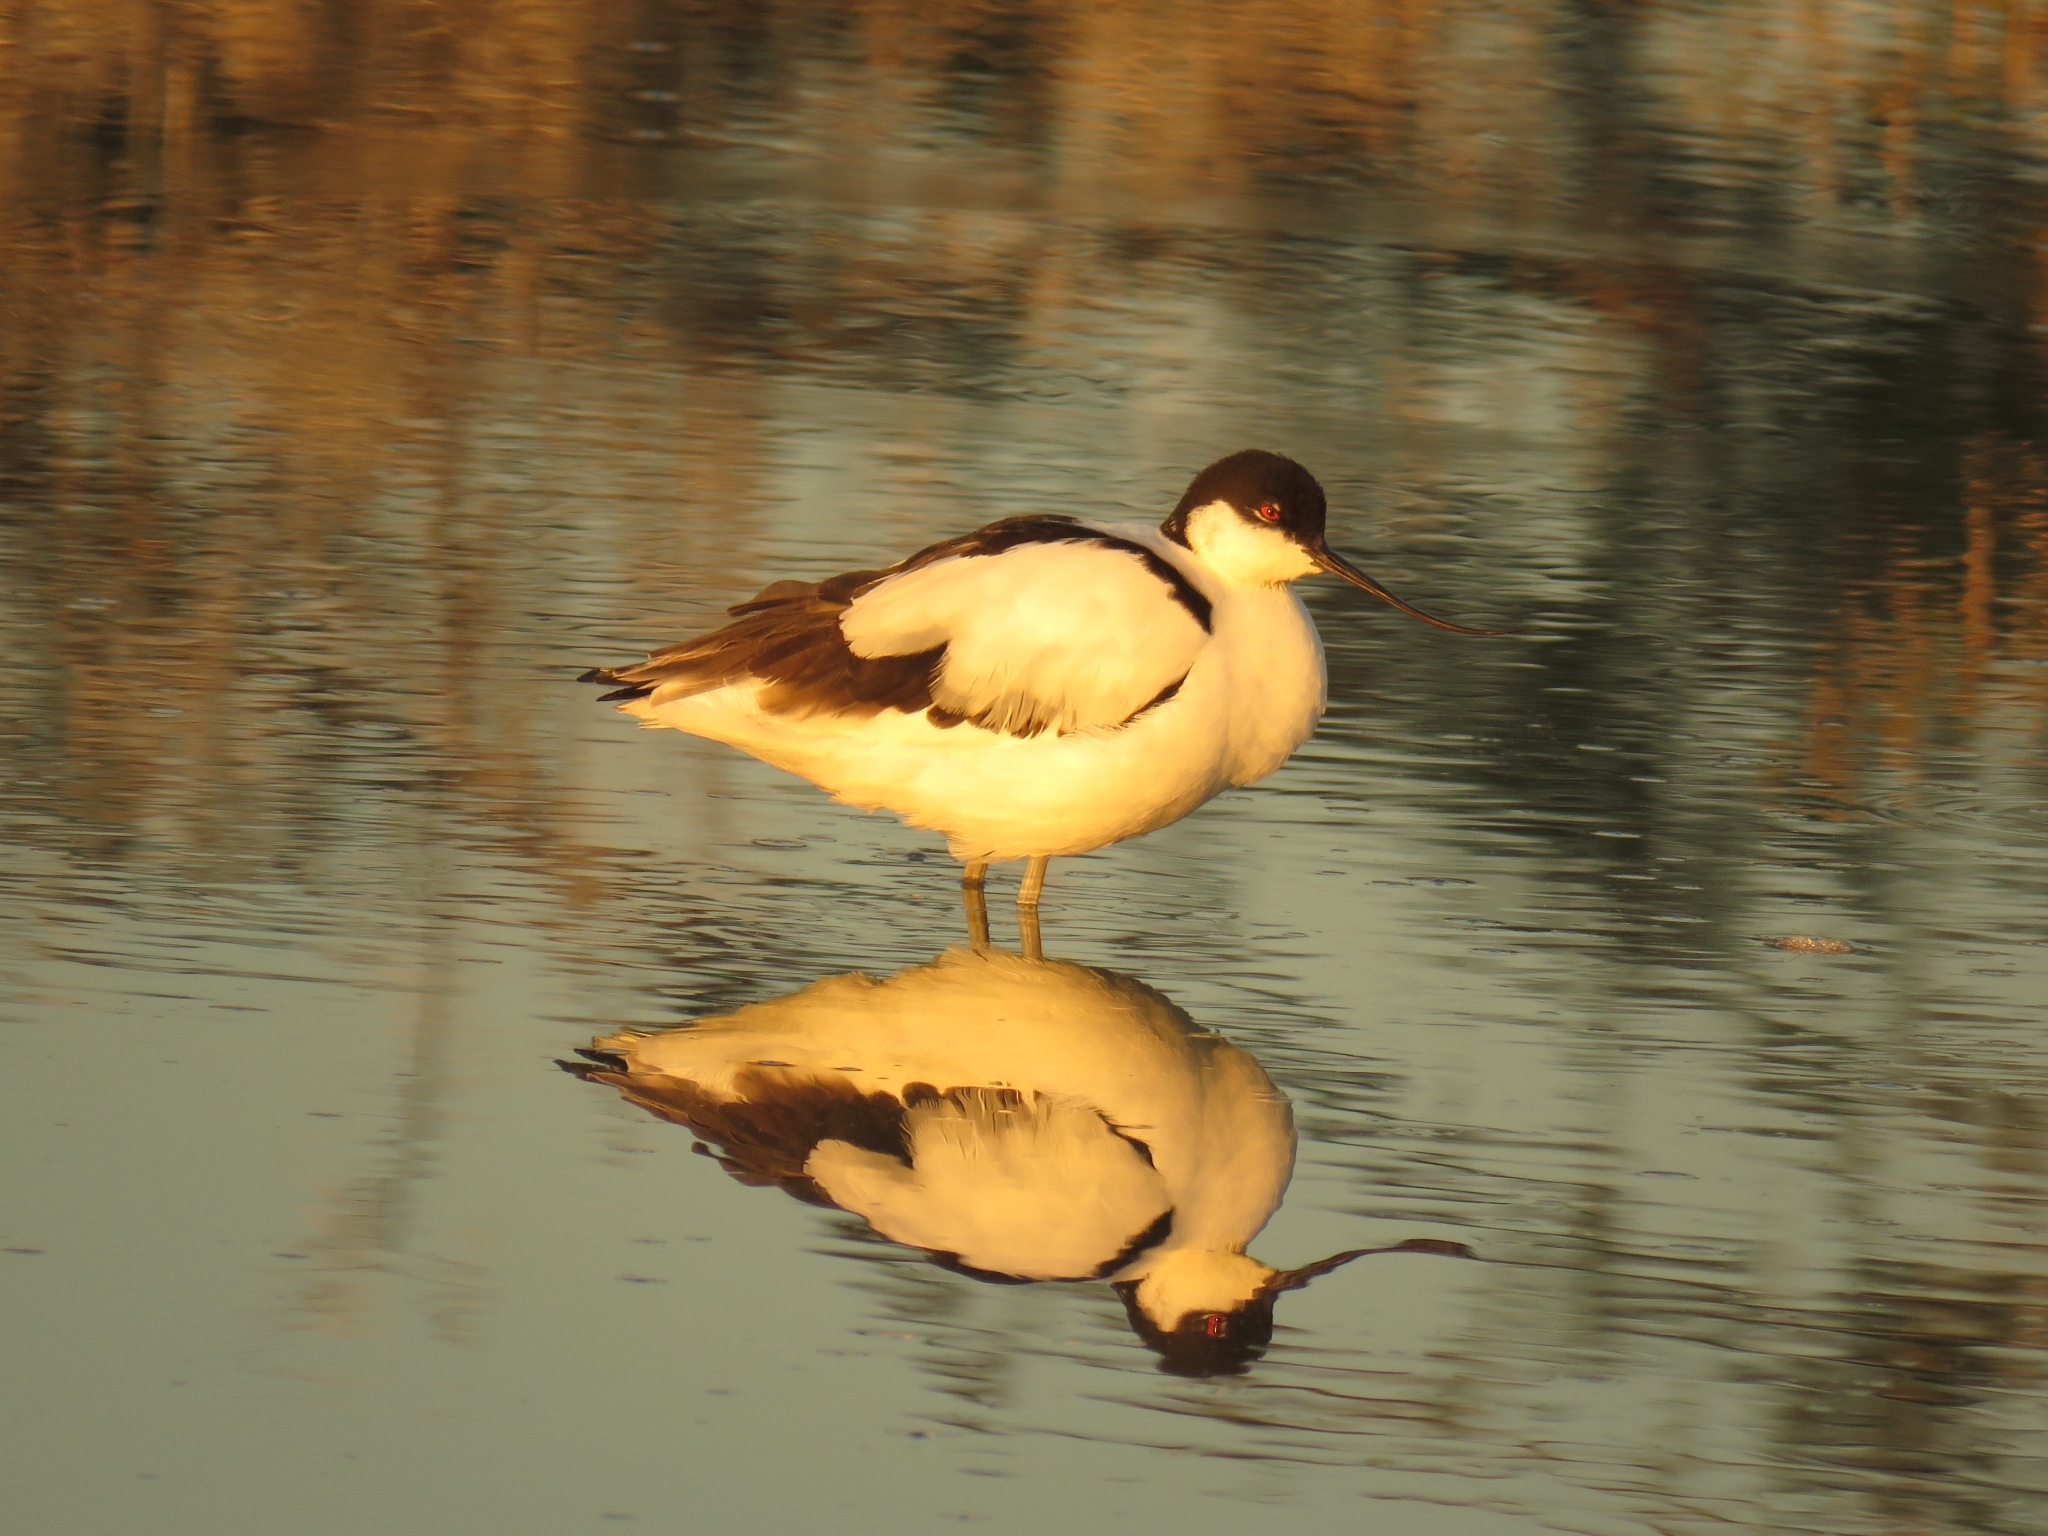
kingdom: Animalia
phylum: Chordata
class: Aves
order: Charadriiformes
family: Recurvirostridae
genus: Recurvirostra
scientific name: Recurvirostra avosetta
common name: Pied avocet
